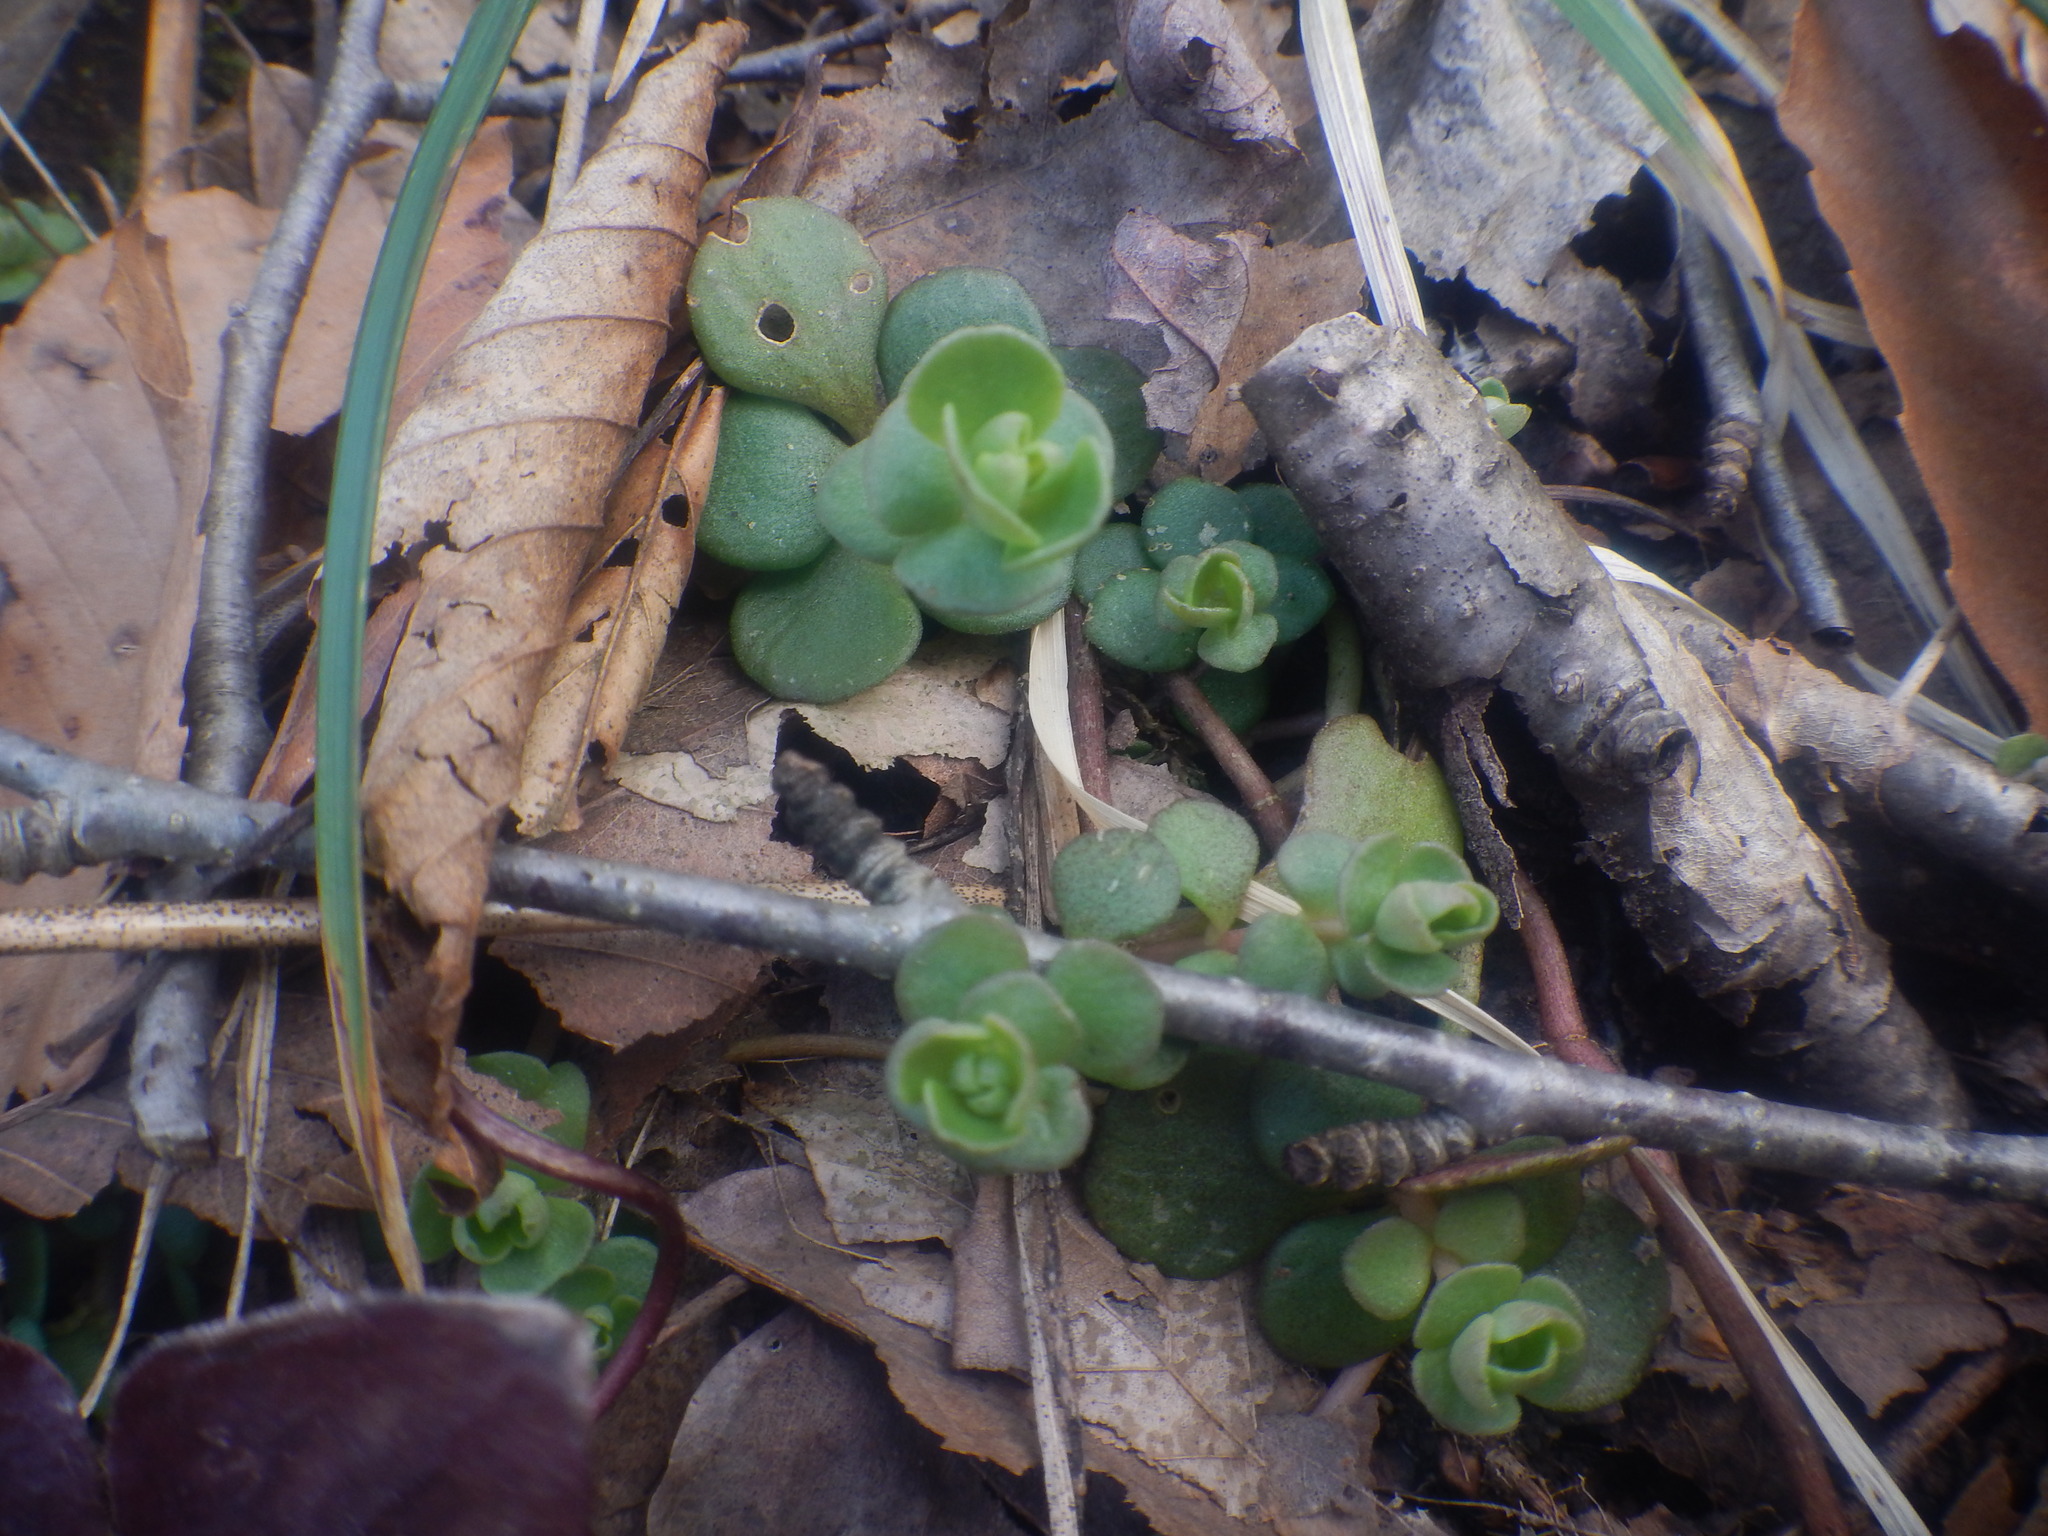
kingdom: Plantae
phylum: Tracheophyta
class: Magnoliopsida
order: Saxifragales
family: Crassulaceae
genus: Sedum
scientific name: Sedum ternatum
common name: Wild stonecrop
